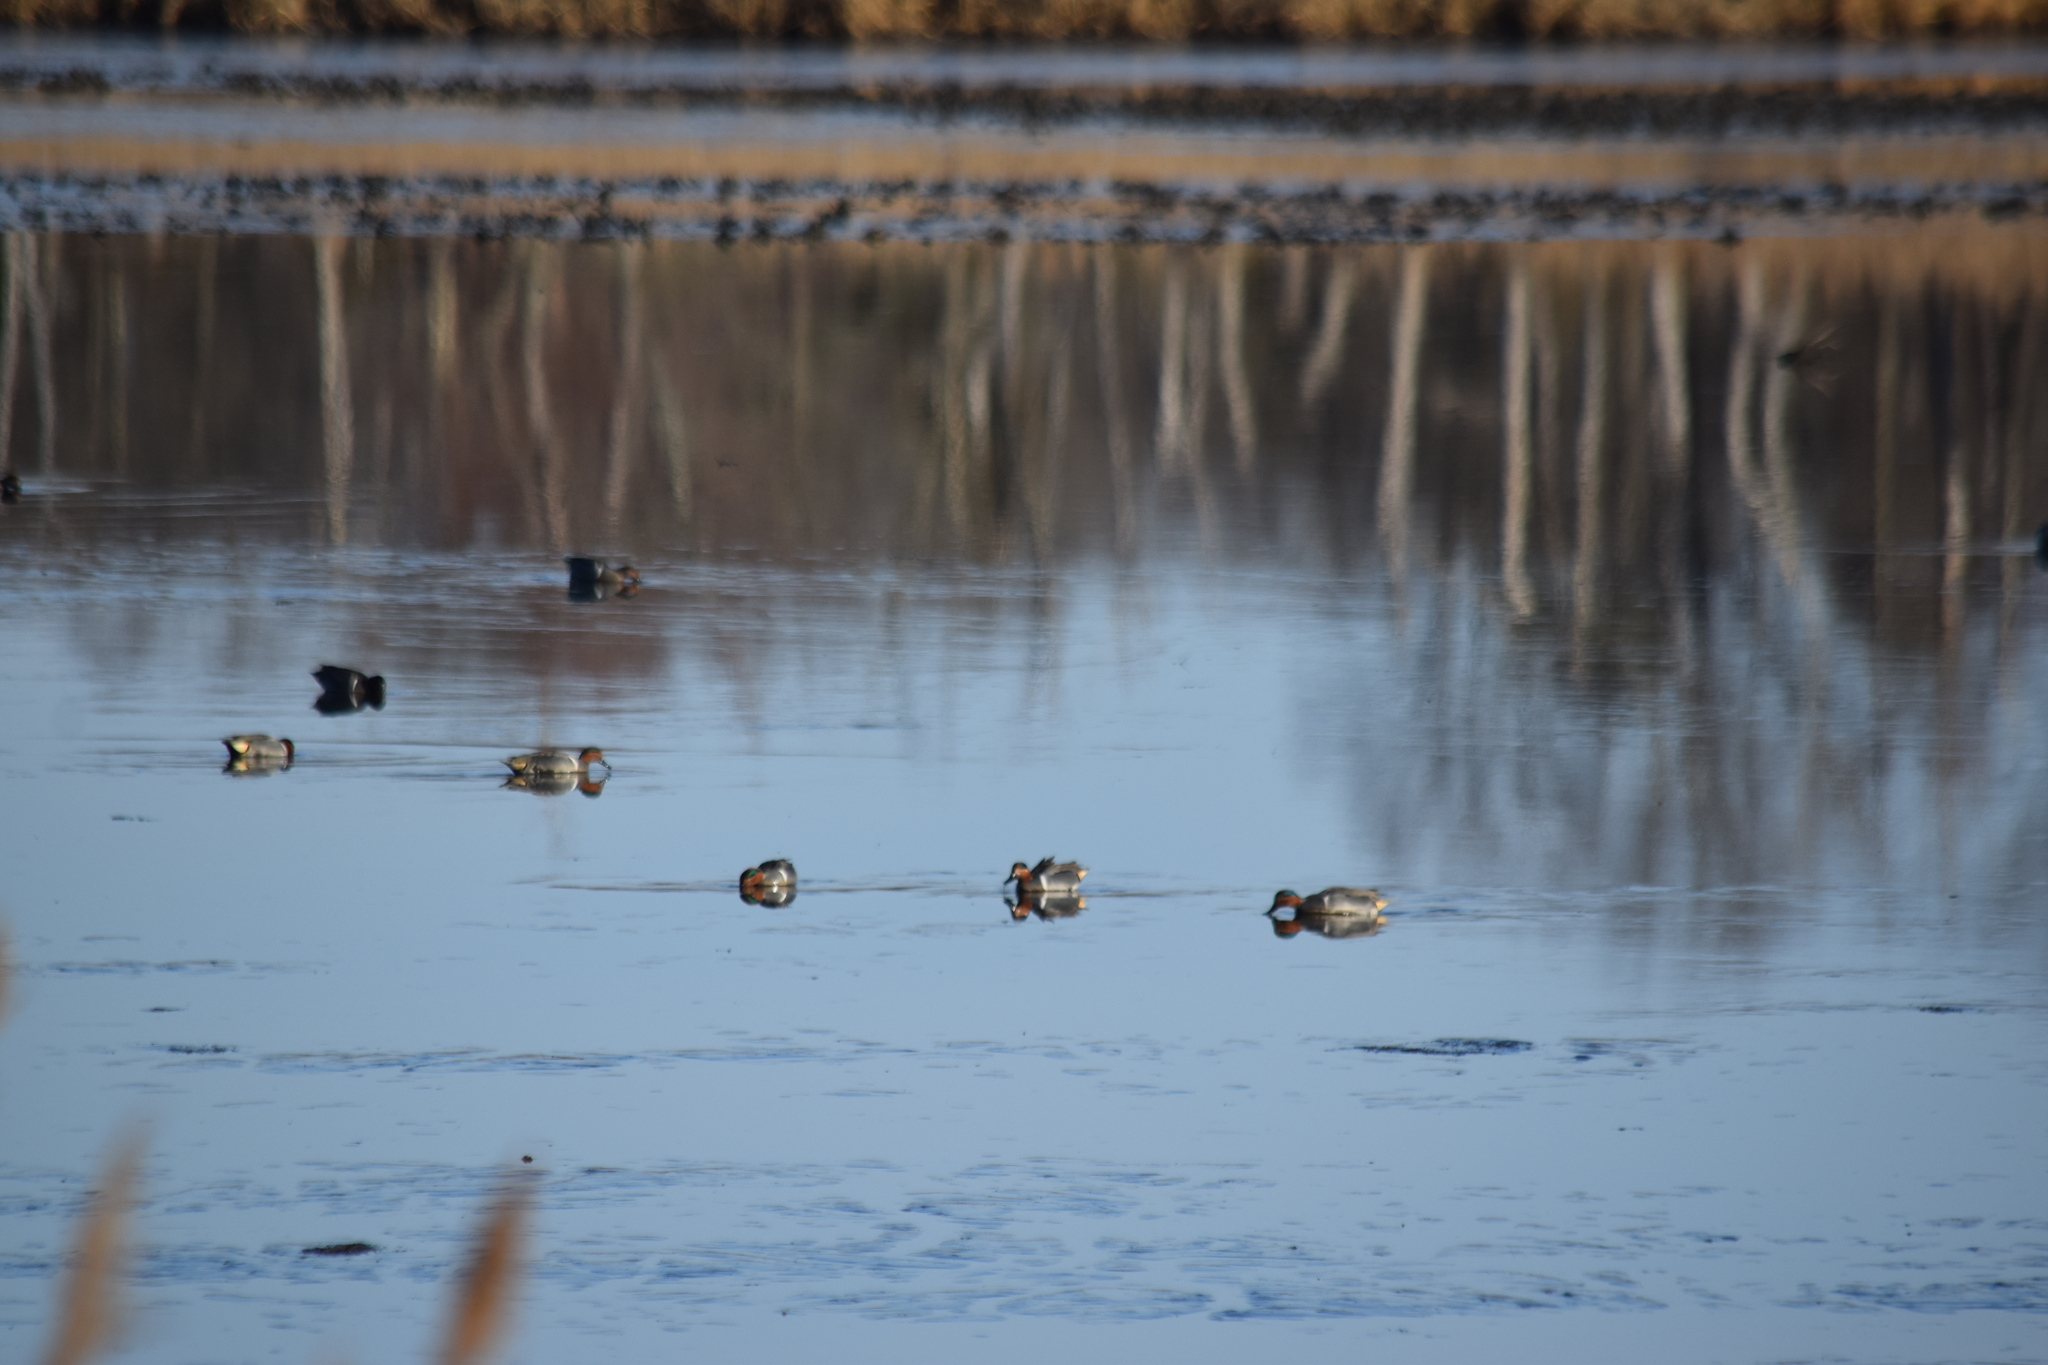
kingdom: Animalia
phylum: Chordata
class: Aves
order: Anseriformes
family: Anatidae
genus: Anas
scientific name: Anas crecca
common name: Eurasian teal
